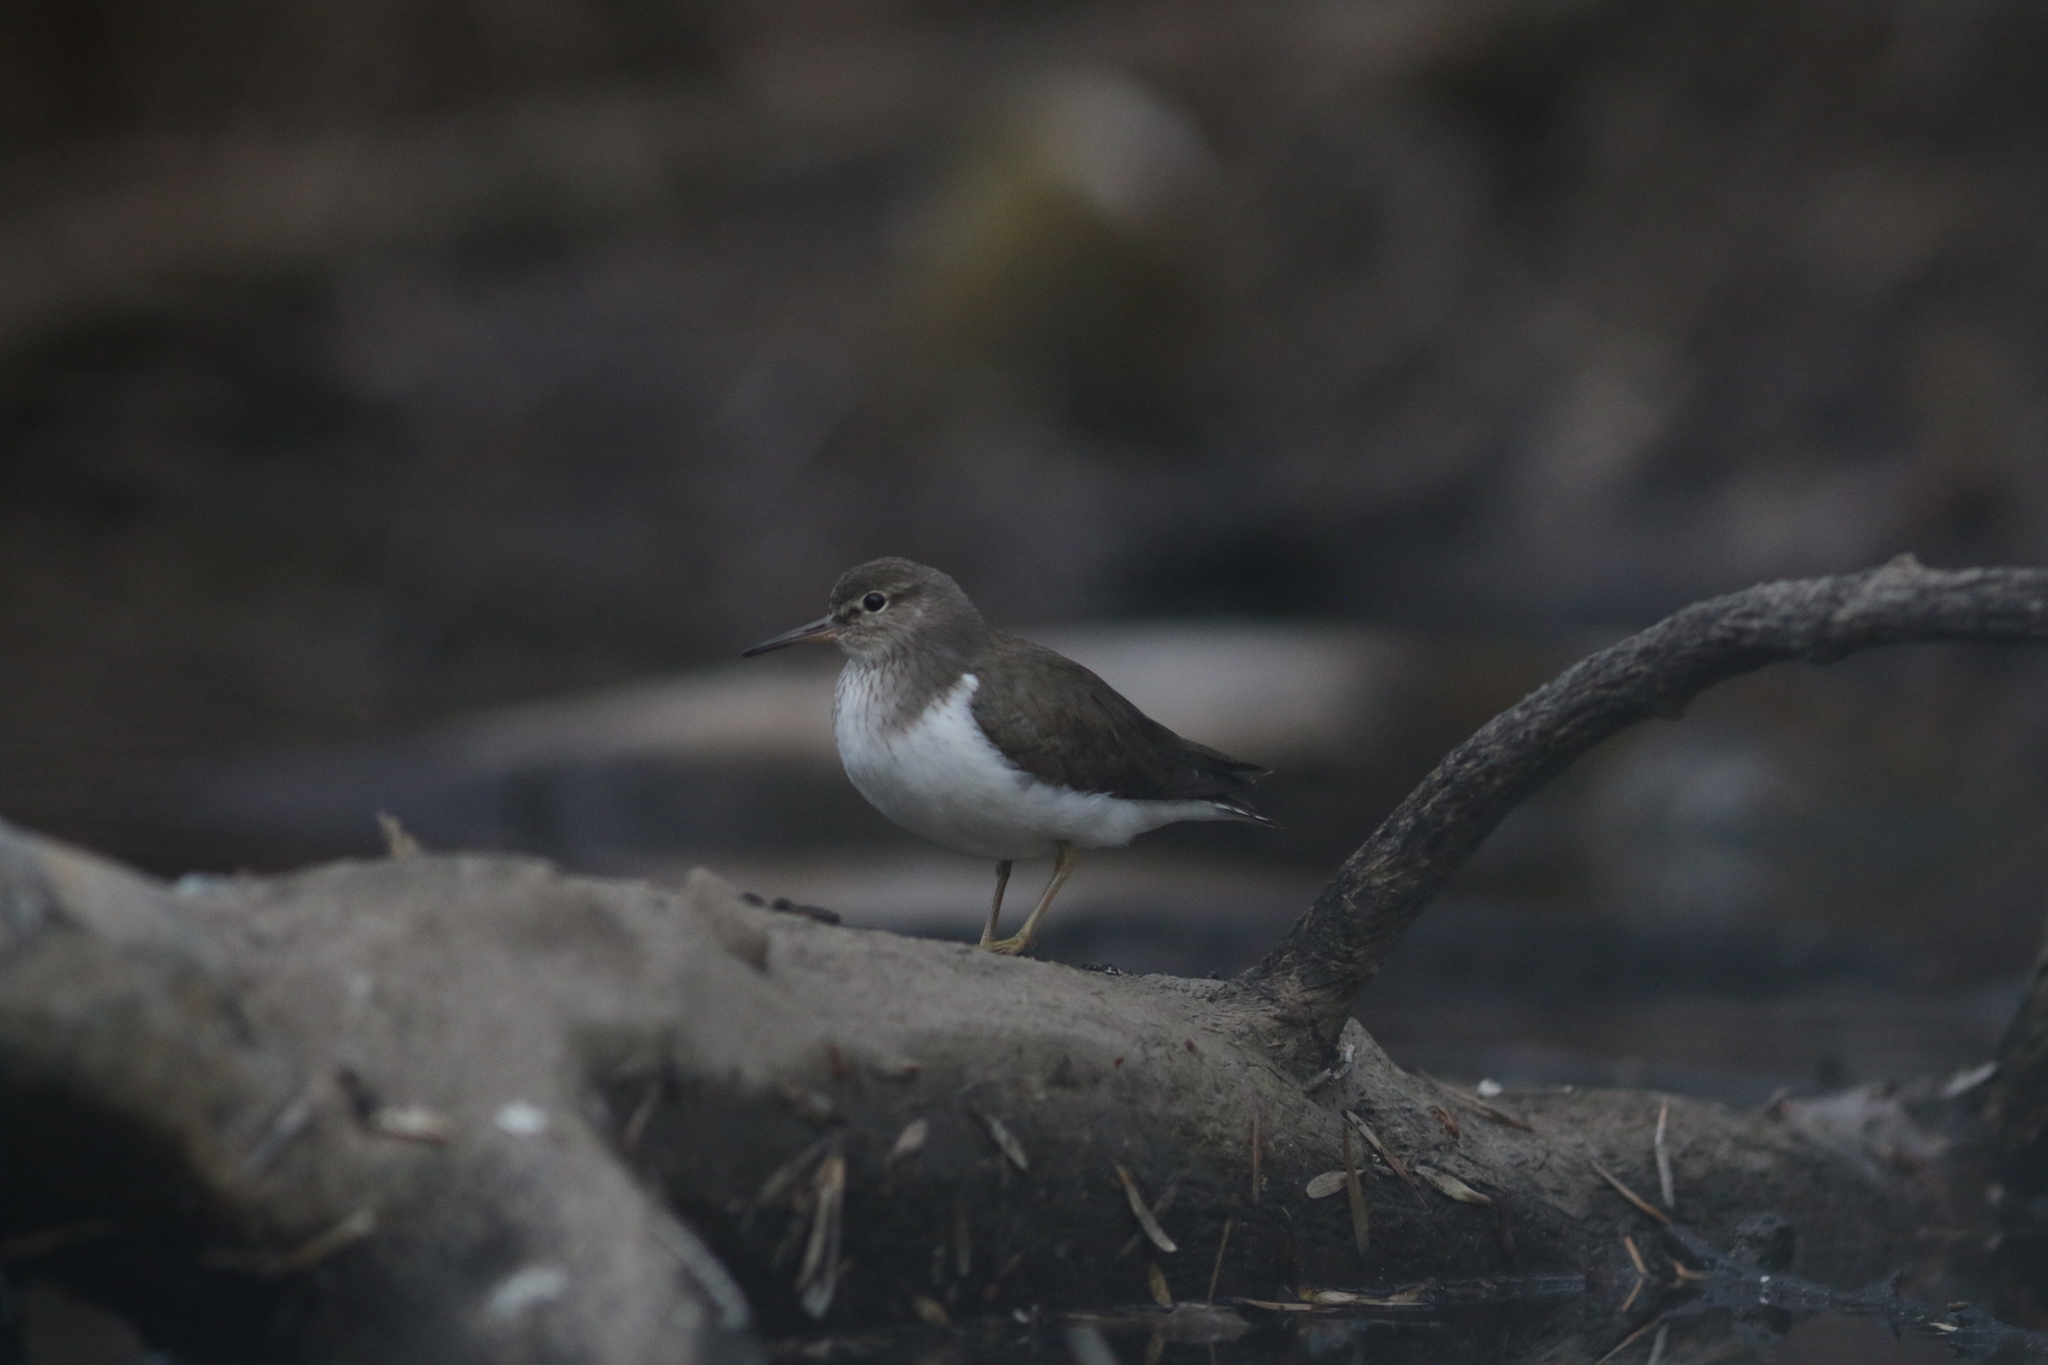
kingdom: Animalia
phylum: Chordata
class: Aves
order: Charadriiformes
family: Scolopacidae
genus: Actitis
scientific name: Actitis hypoleucos
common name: Common sandpiper
